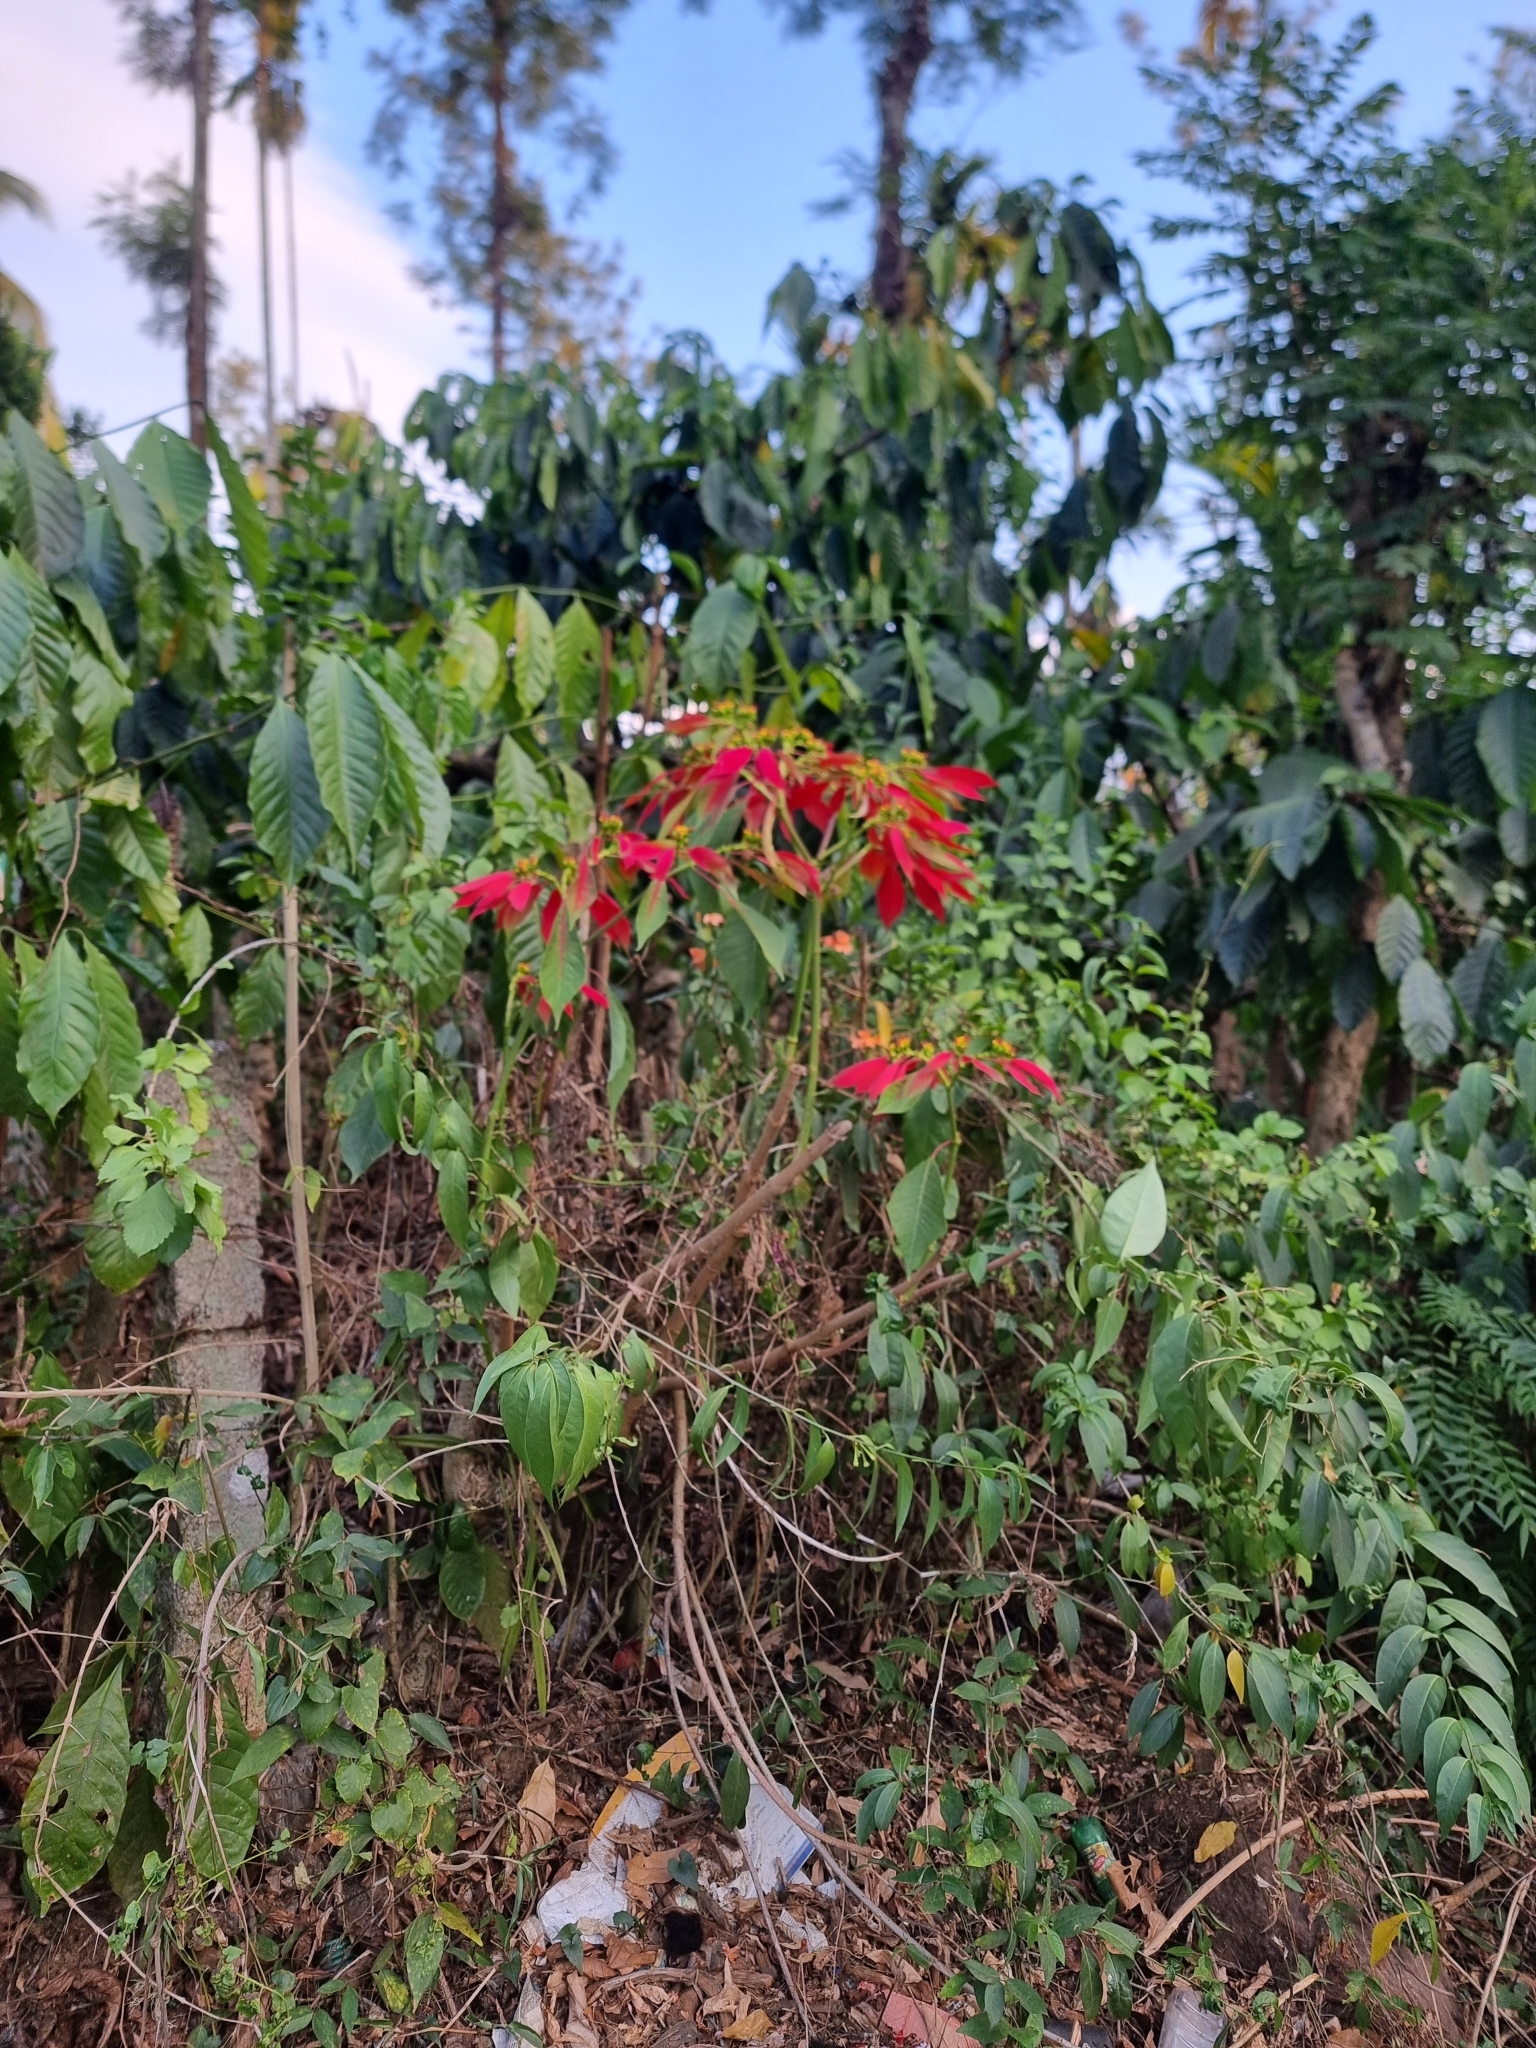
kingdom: Plantae
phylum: Tracheophyta
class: Magnoliopsida
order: Malpighiales
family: Euphorbiaceae
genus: Euphorbia
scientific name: Euphorbia pulcherrima
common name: Christmas-flower
